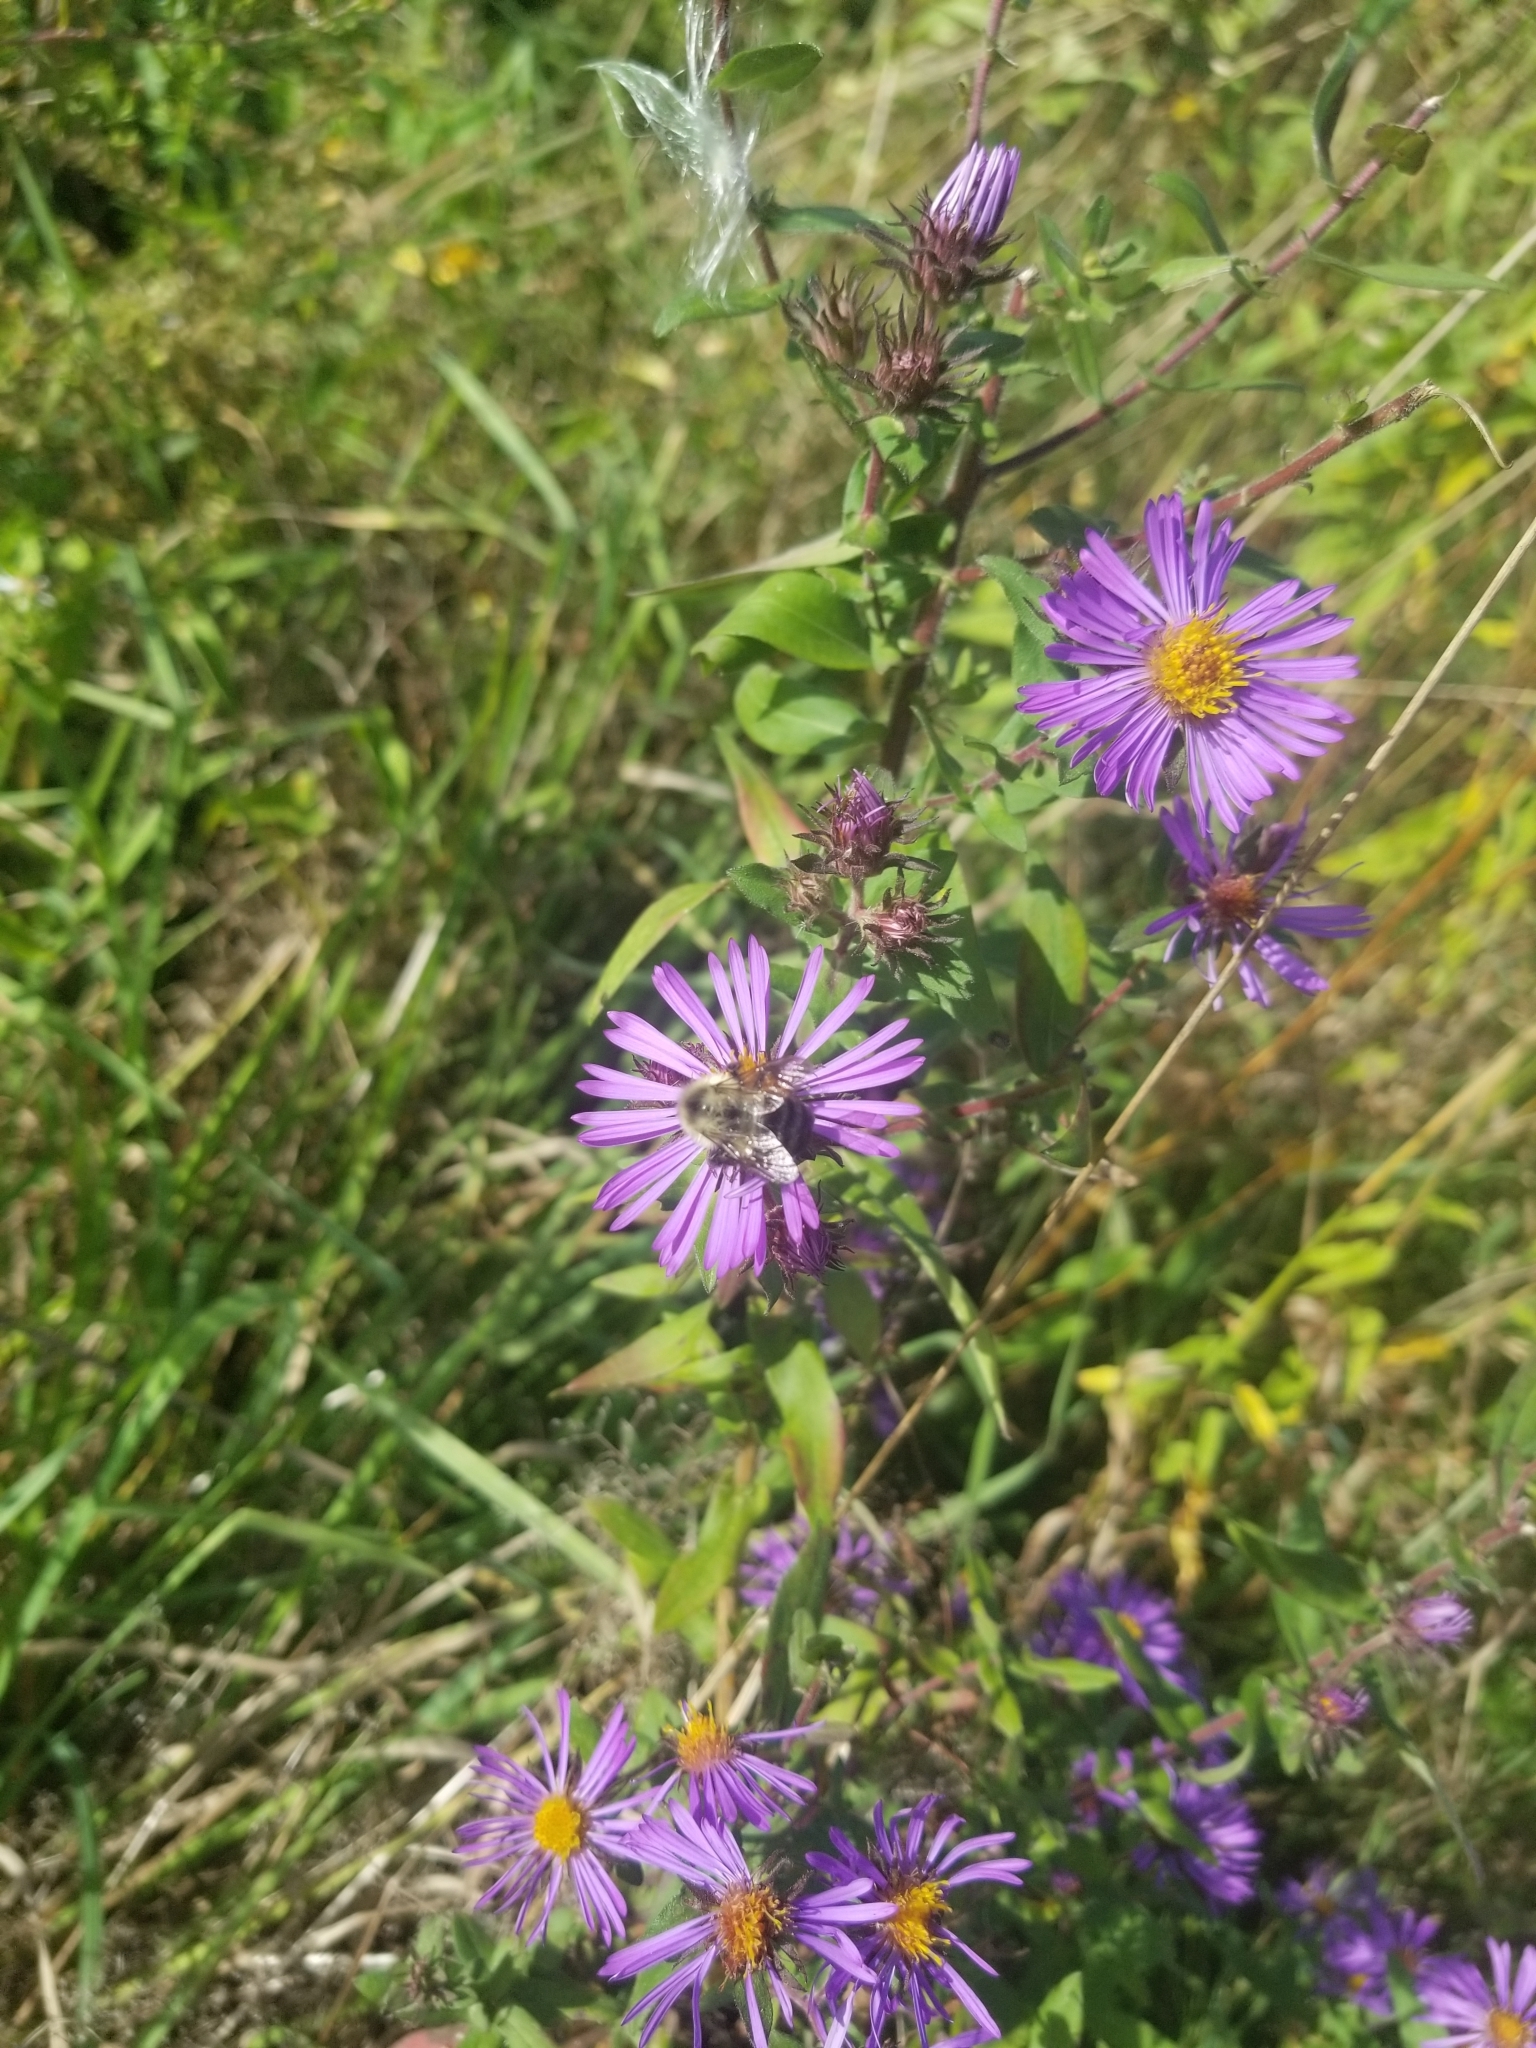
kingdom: Animalia
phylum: Arthropoda
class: Insecta
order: Hymenoptera
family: Apidae
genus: Bombus
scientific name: Bombus impatiens
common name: Common eastern bumble bee
